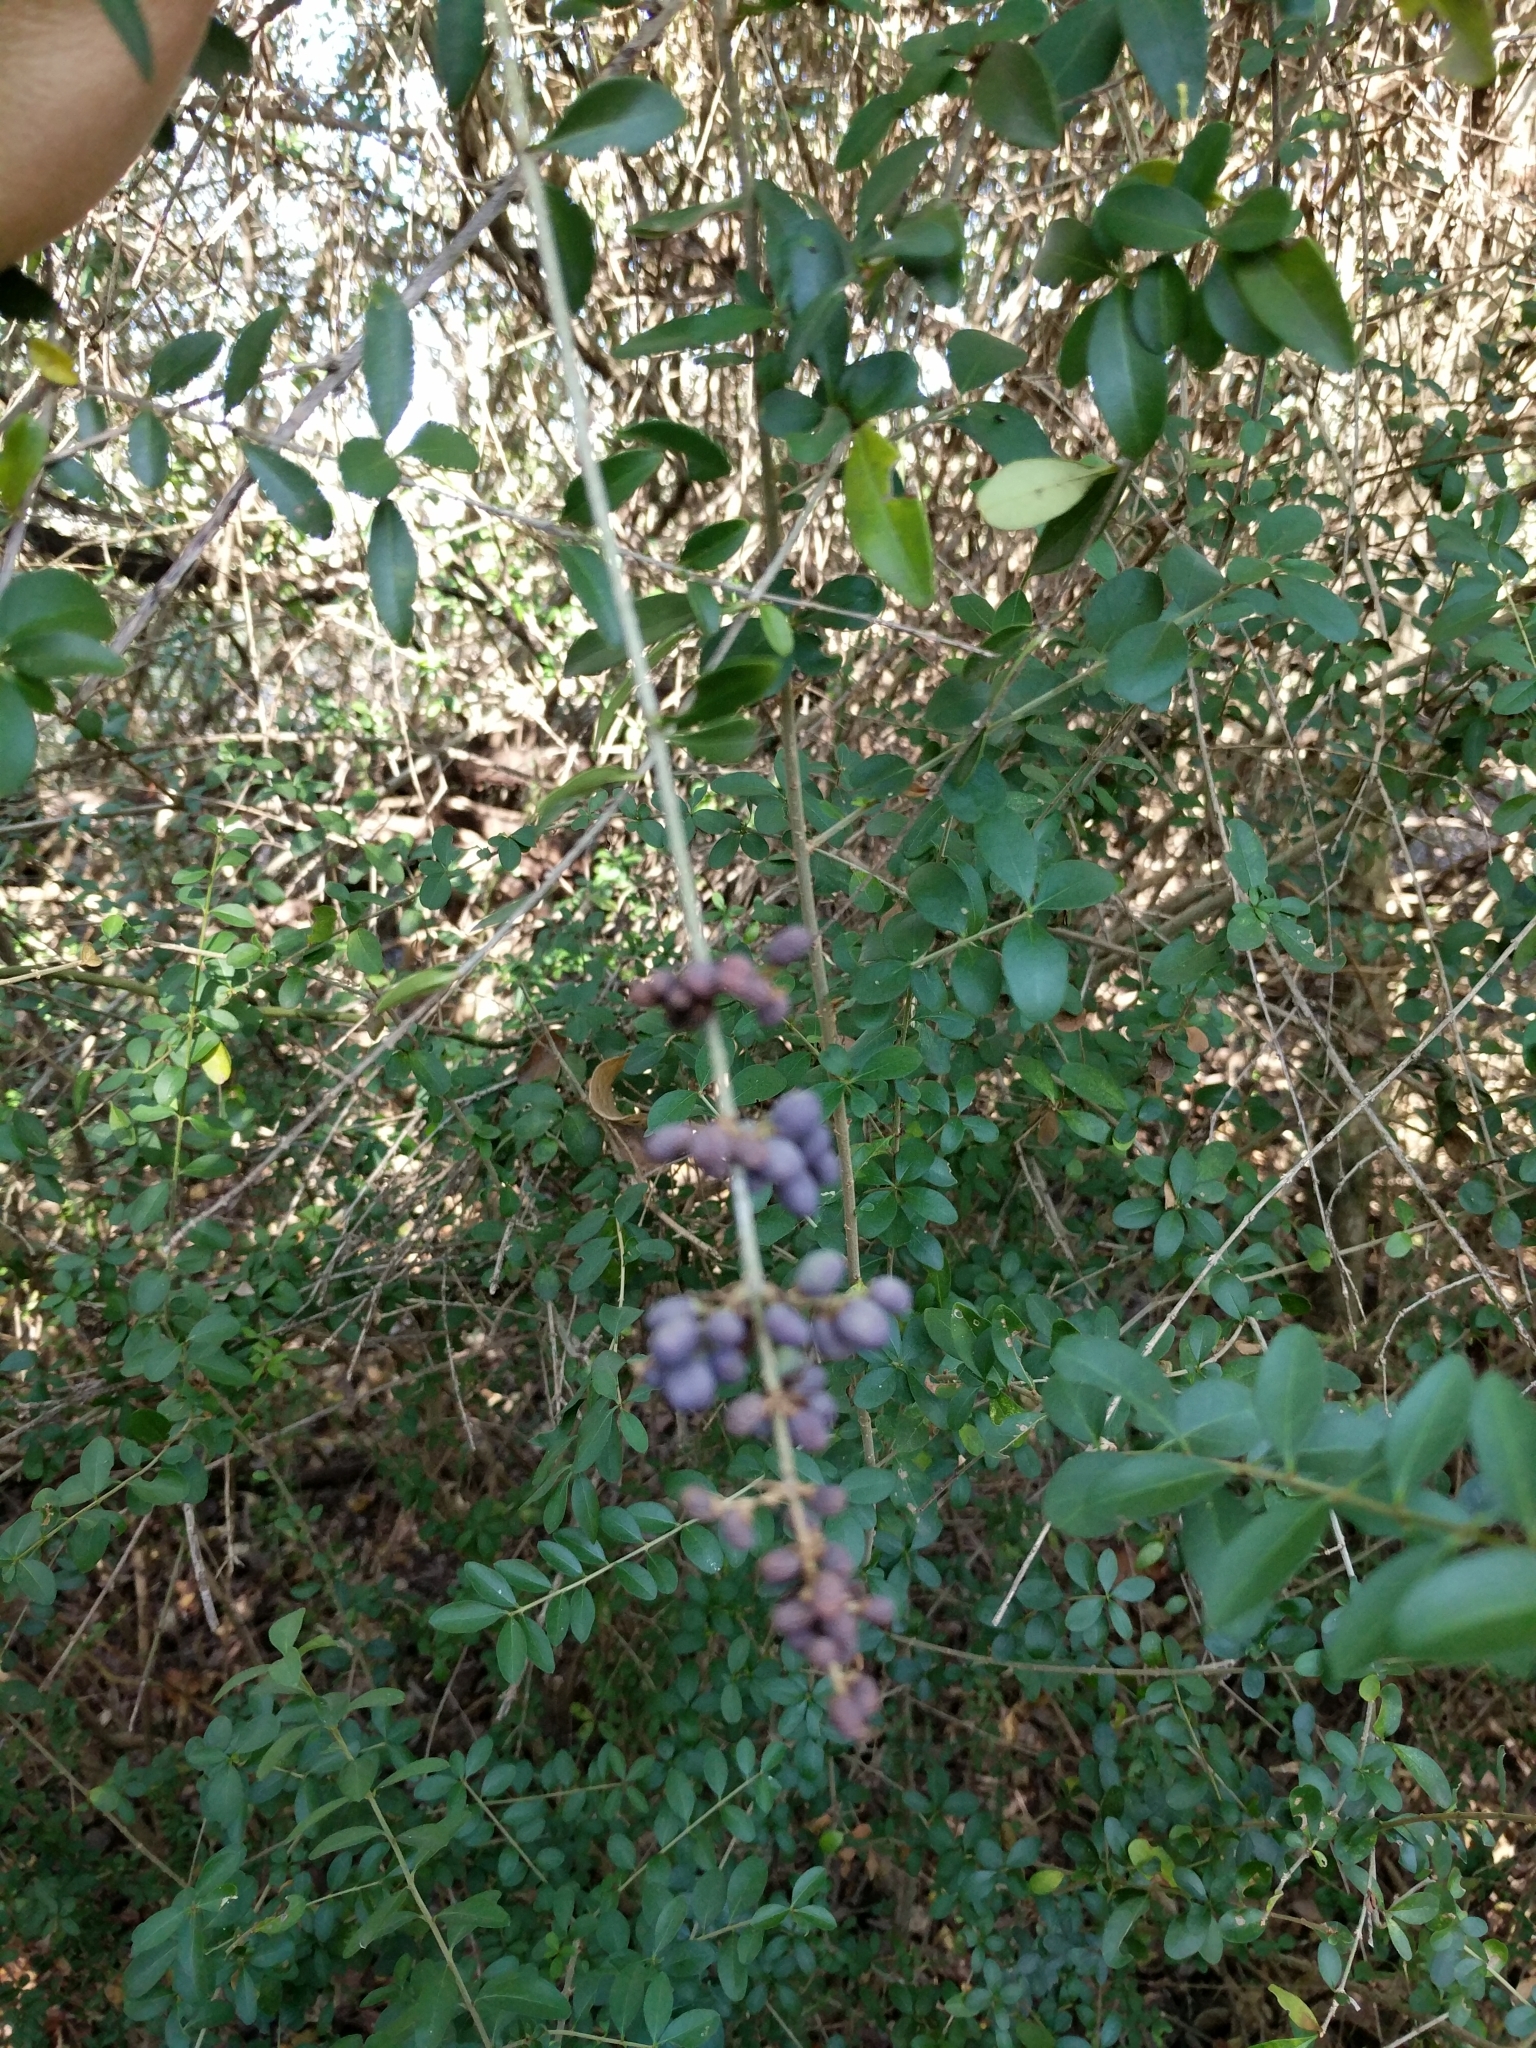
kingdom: Plantae
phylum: Tracheophyta
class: Magnoliopsida
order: Lamiales
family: Oleaceae
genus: Ligustrum
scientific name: Ligustrum quihoui
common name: Waxyleaf privet
